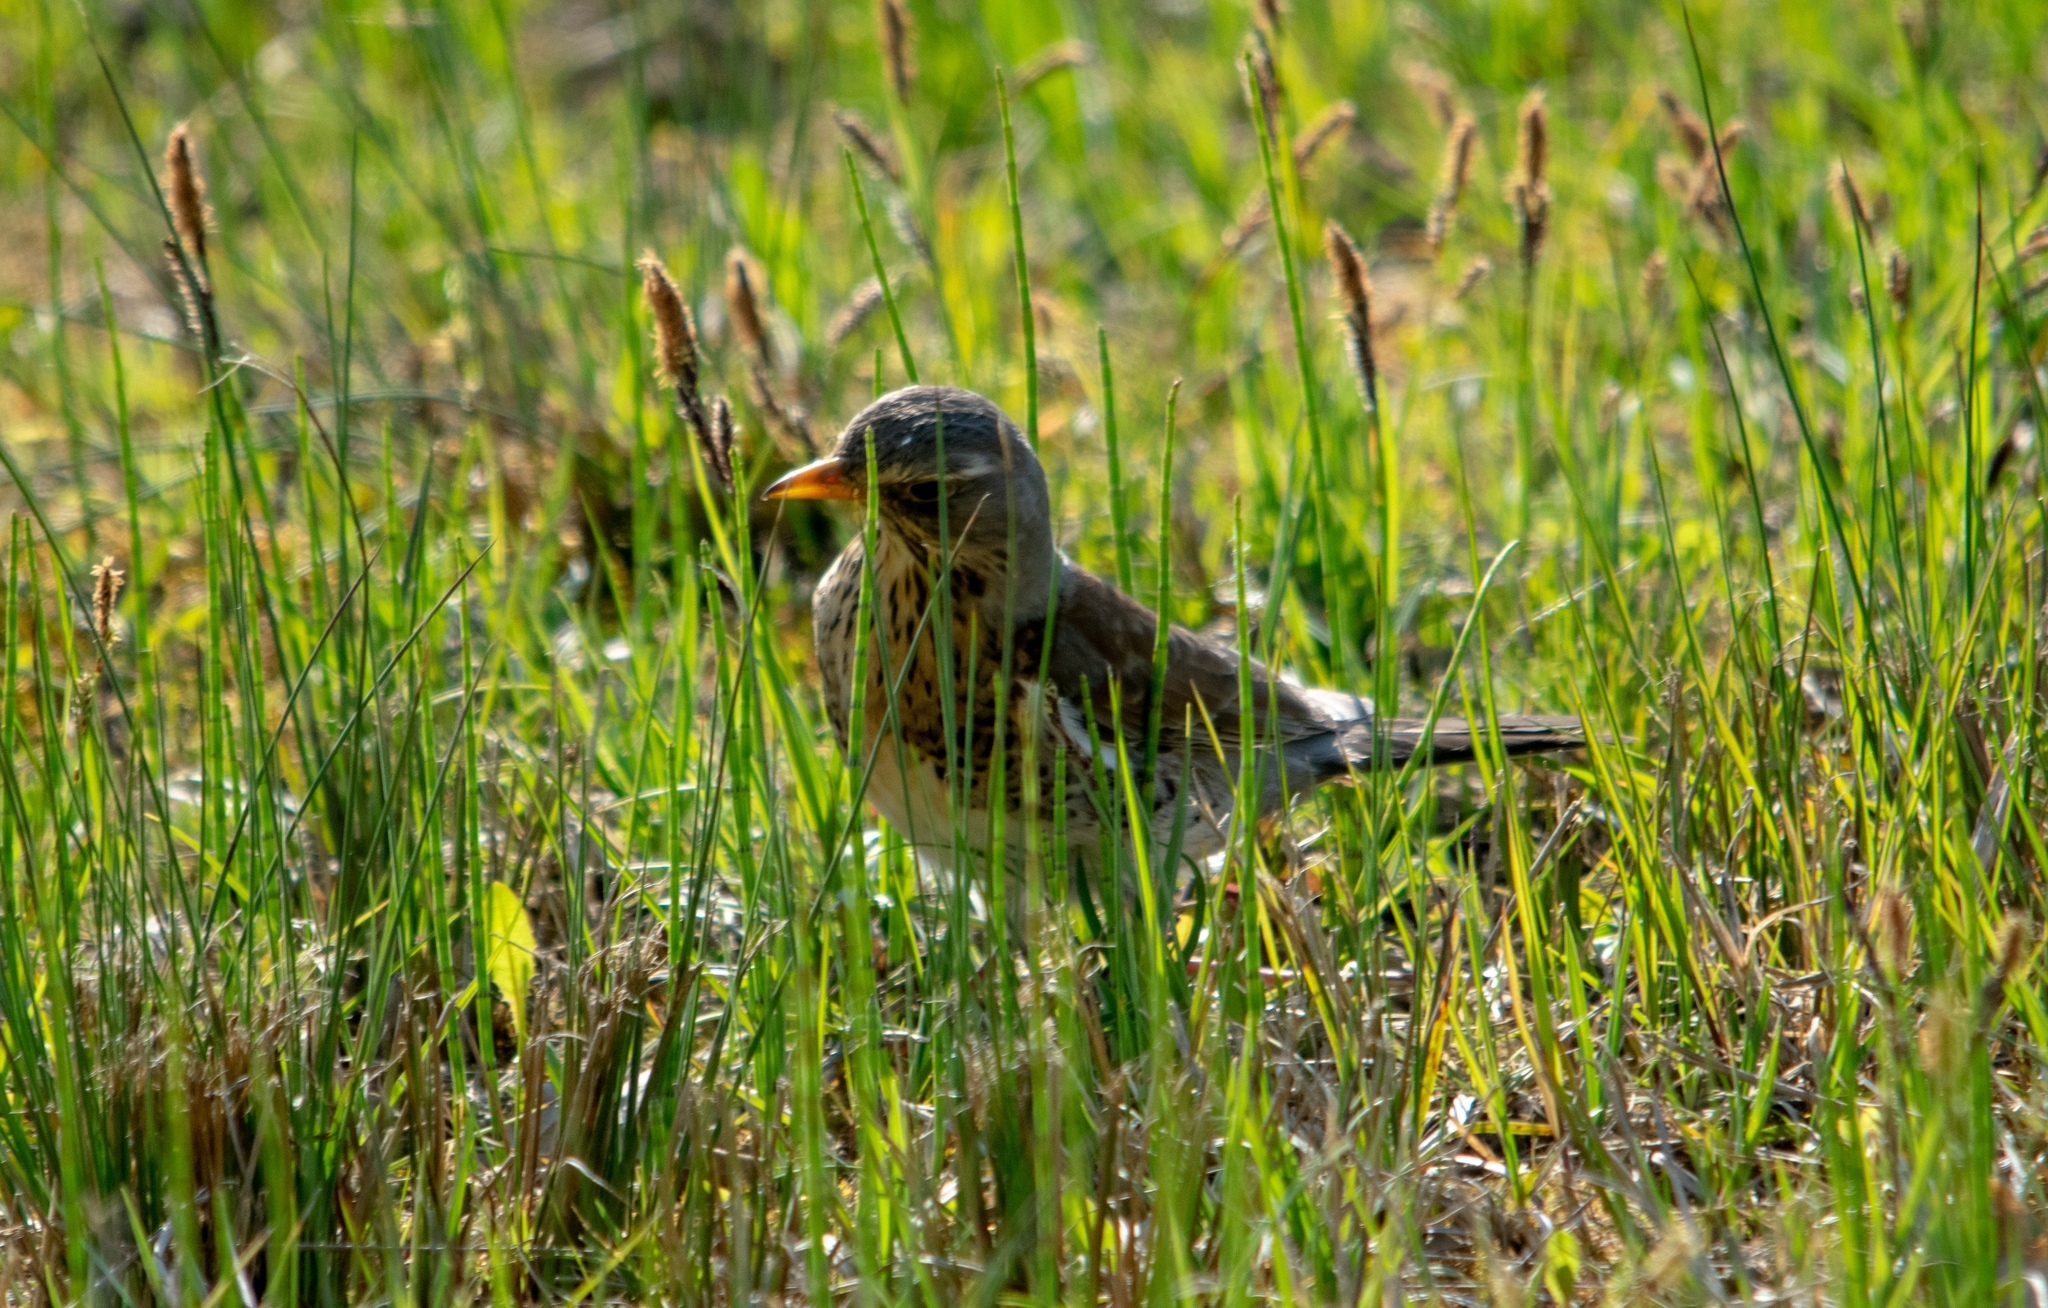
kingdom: Animalia
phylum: Chordata
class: Aves
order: Passeriformes
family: Turdidae
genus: Turdus
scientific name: Turdus pilaris
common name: Fieldfare
